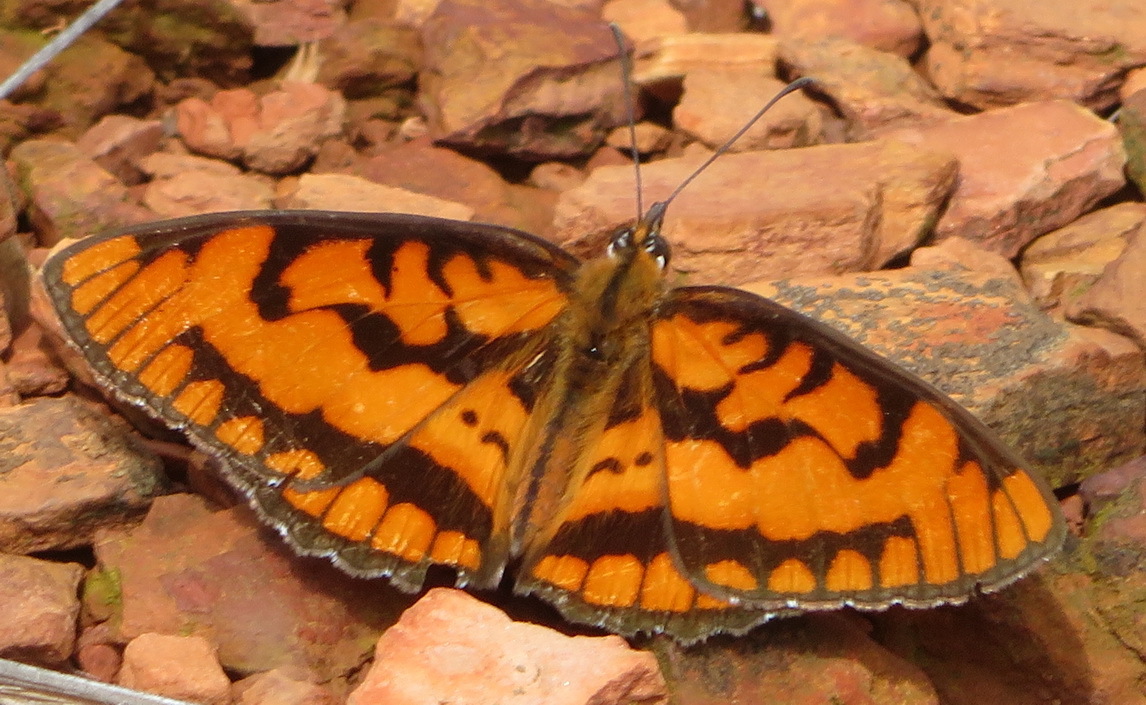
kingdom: Animalia
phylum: Arthropoda
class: Insecta
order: Lepidoptera
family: Nymphalidae
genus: Byblia
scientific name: Byblia ilithyia
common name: Spotted joker
